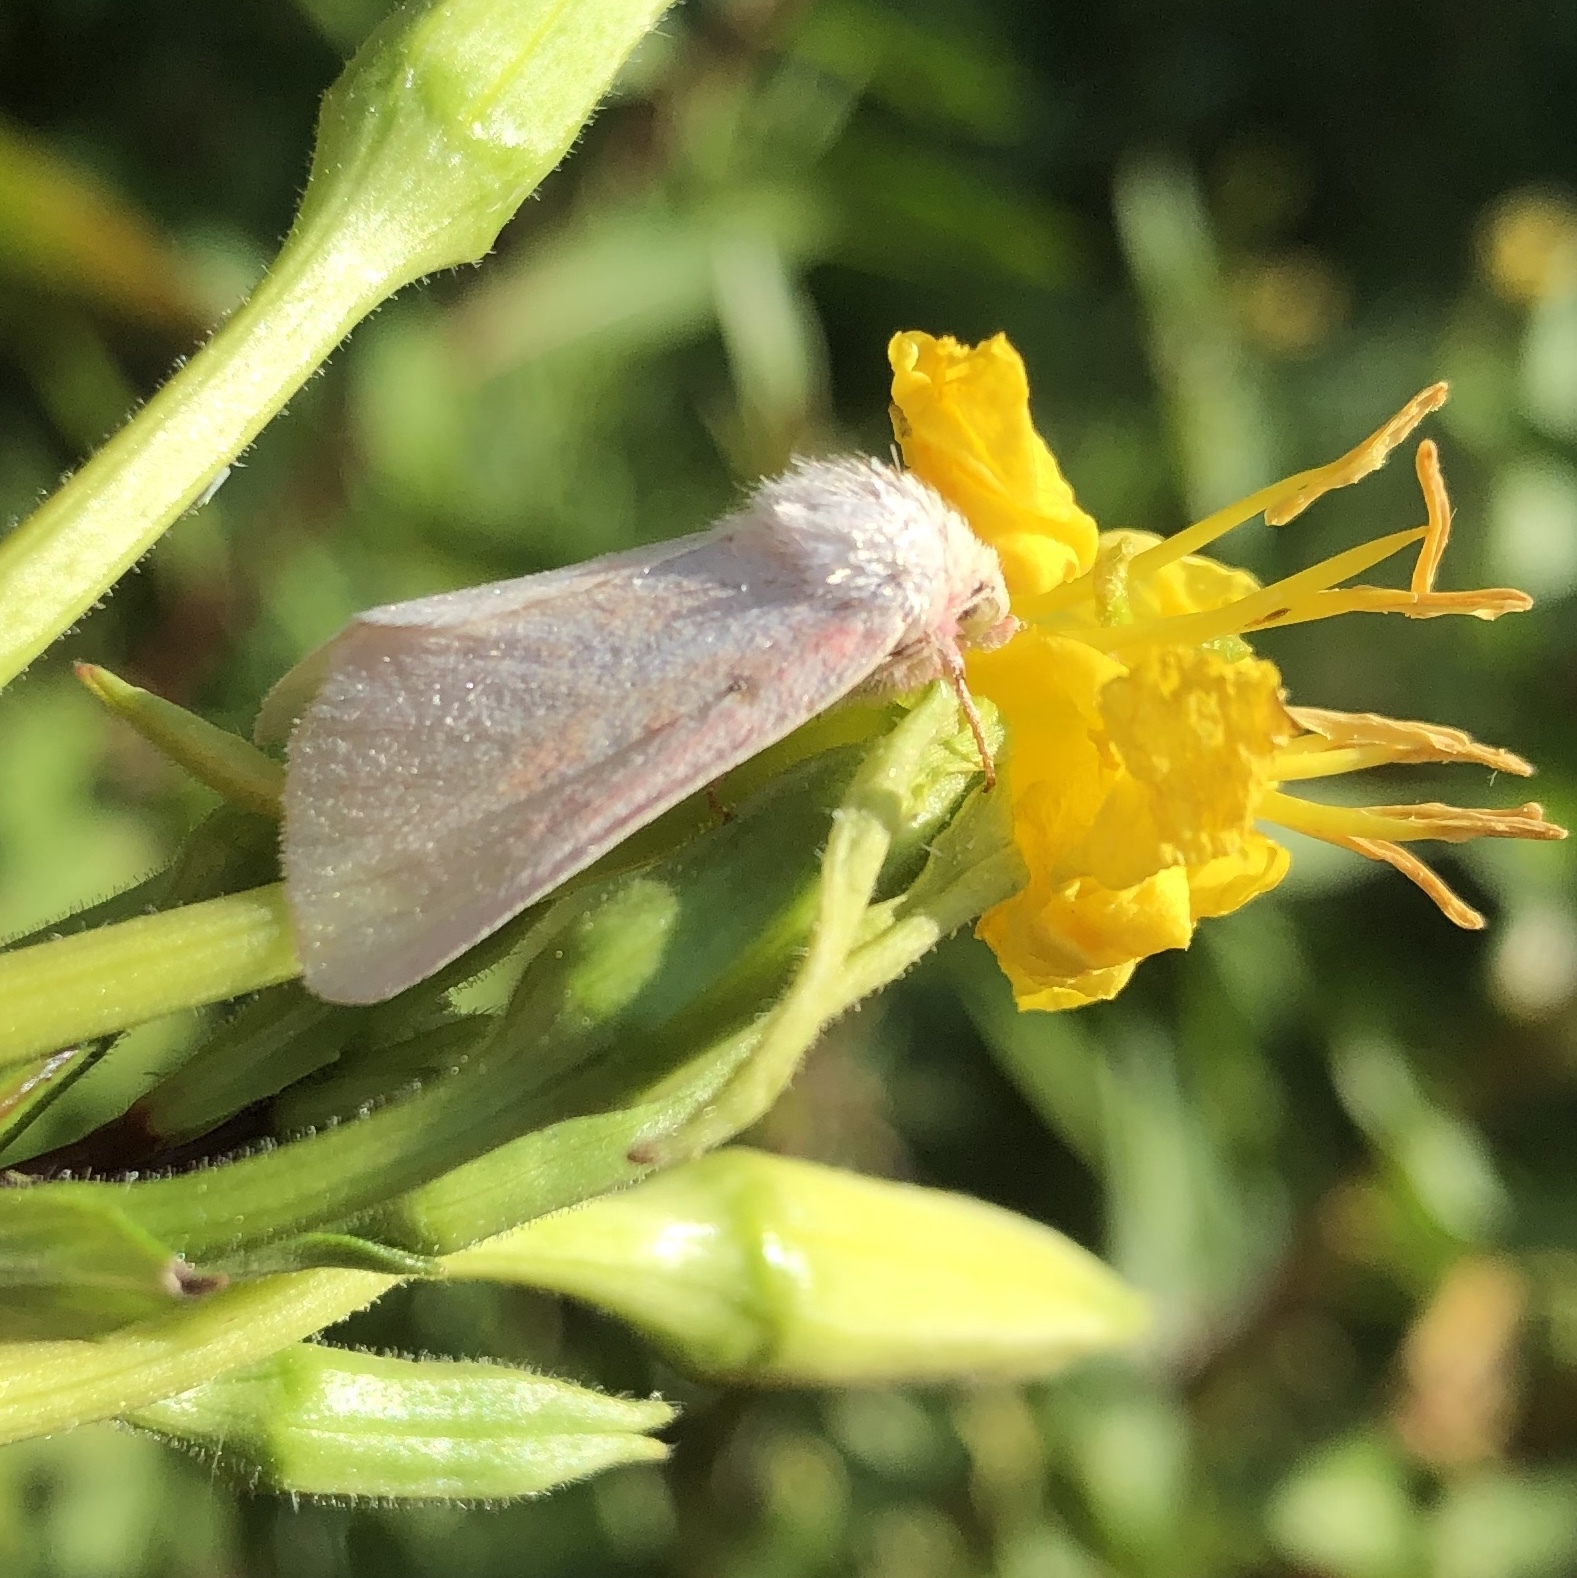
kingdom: Animalia
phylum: Arthropoda
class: Insecta
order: Lepidoptera
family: Noctuidae
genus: Schinia
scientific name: Schinia florida
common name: Primrose moth
